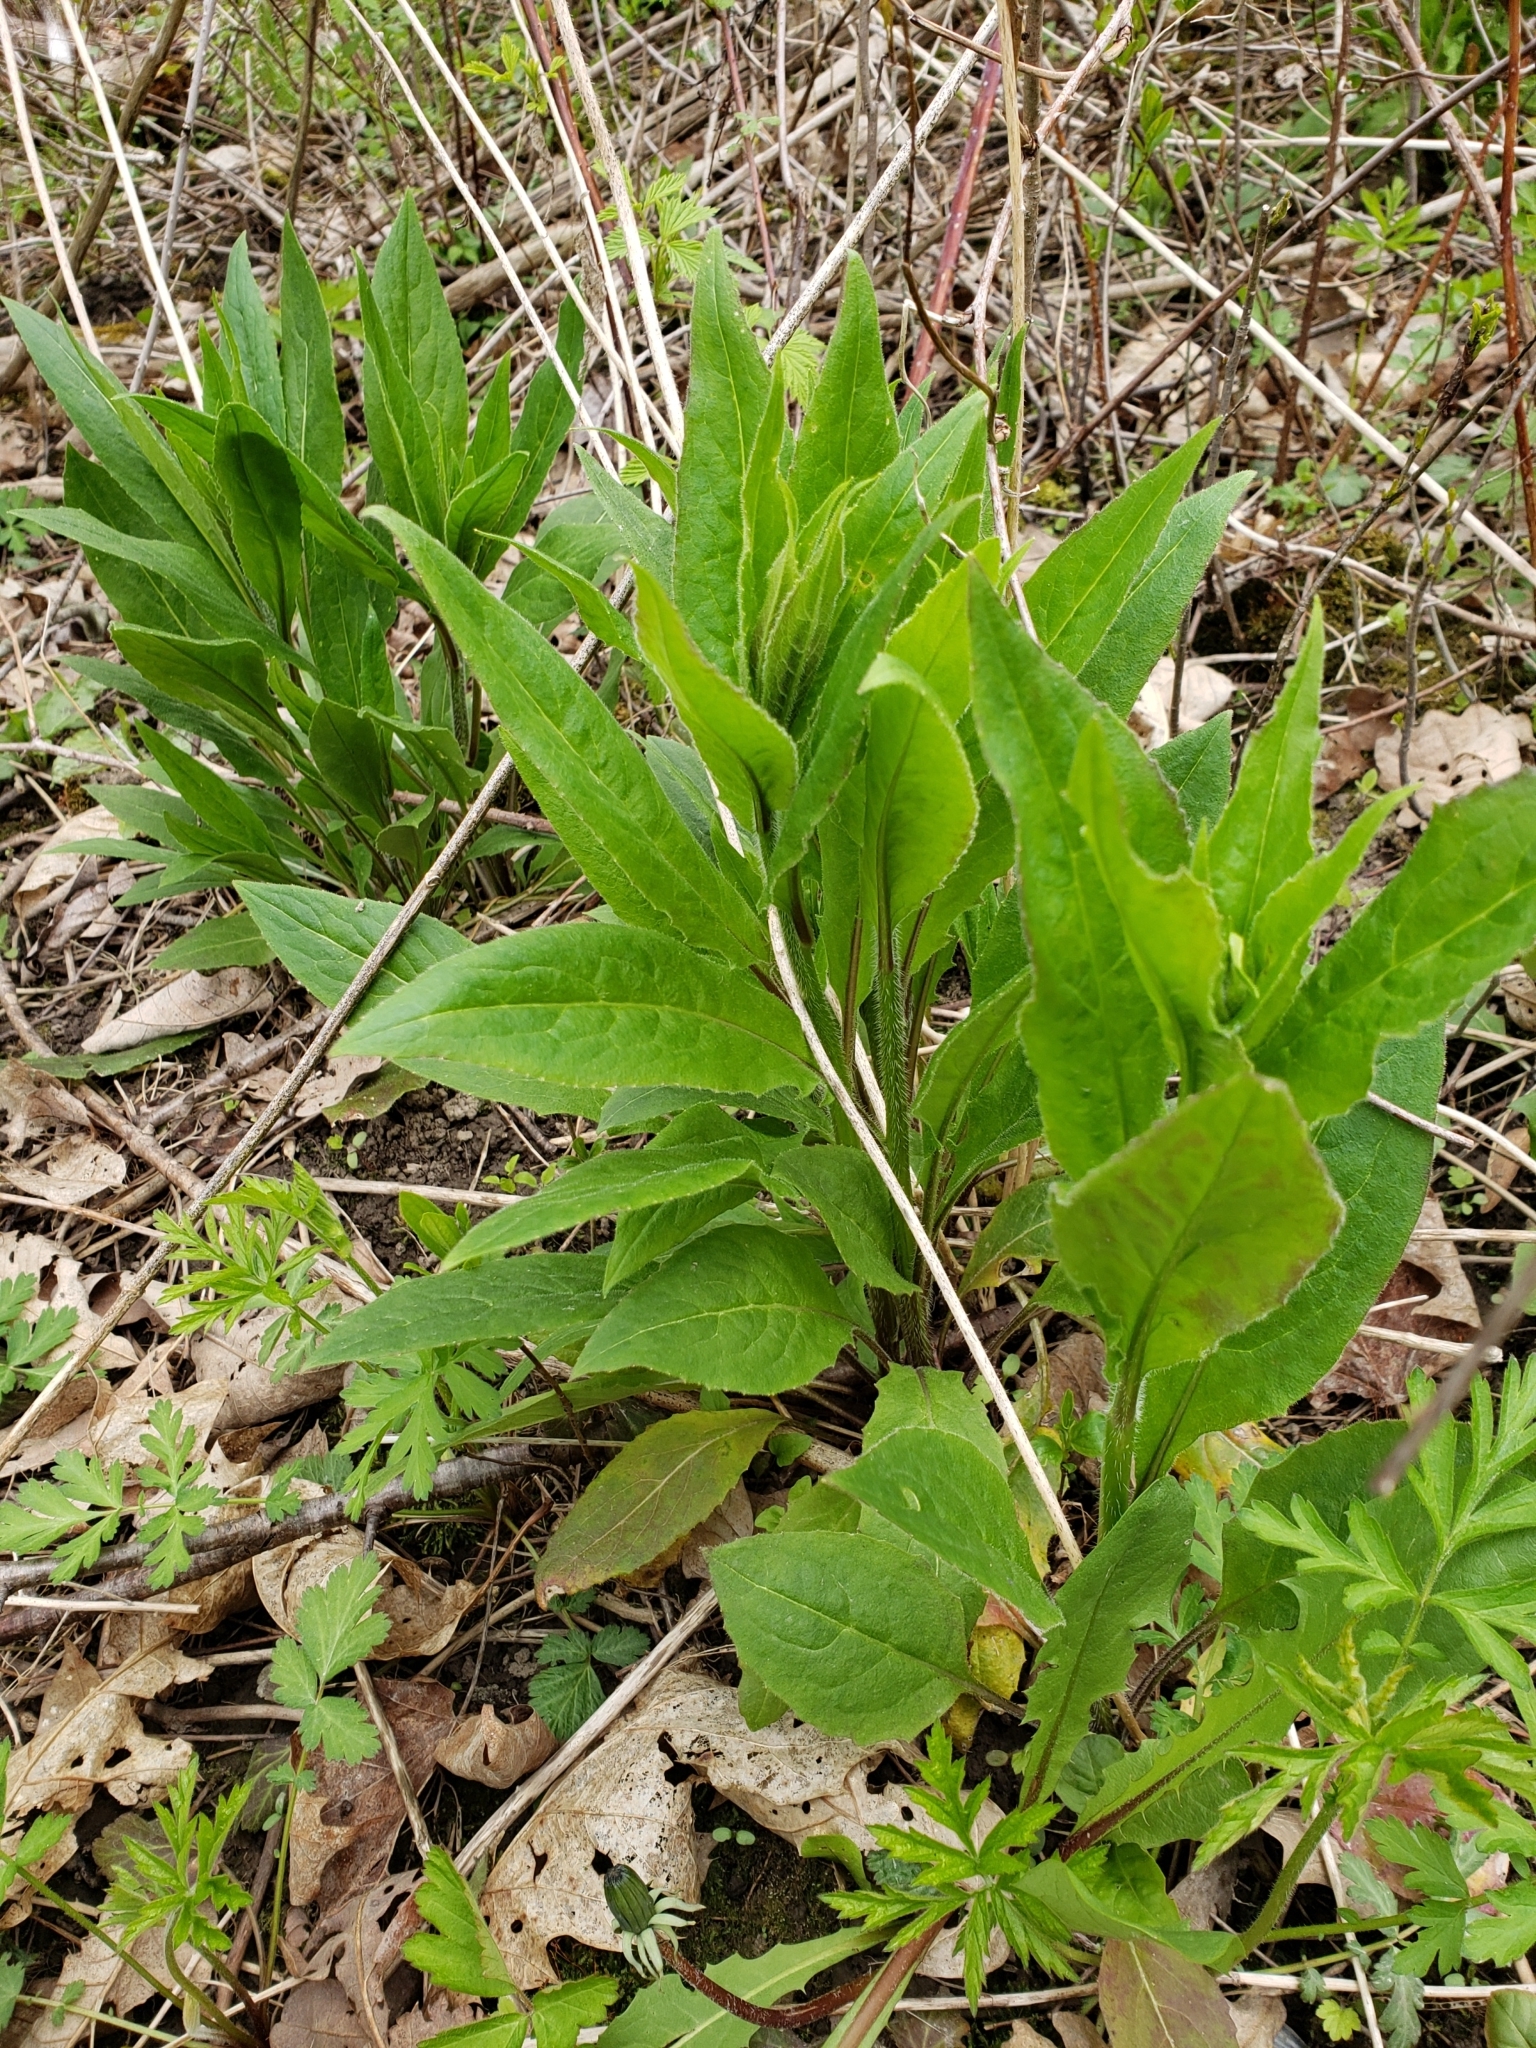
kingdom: Plantae
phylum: Tracheophyta
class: Magnoliopsida
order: Brassicales
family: Brassicaceae
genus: Hesperis
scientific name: Hesperis matronalis
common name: Dame's-violet
